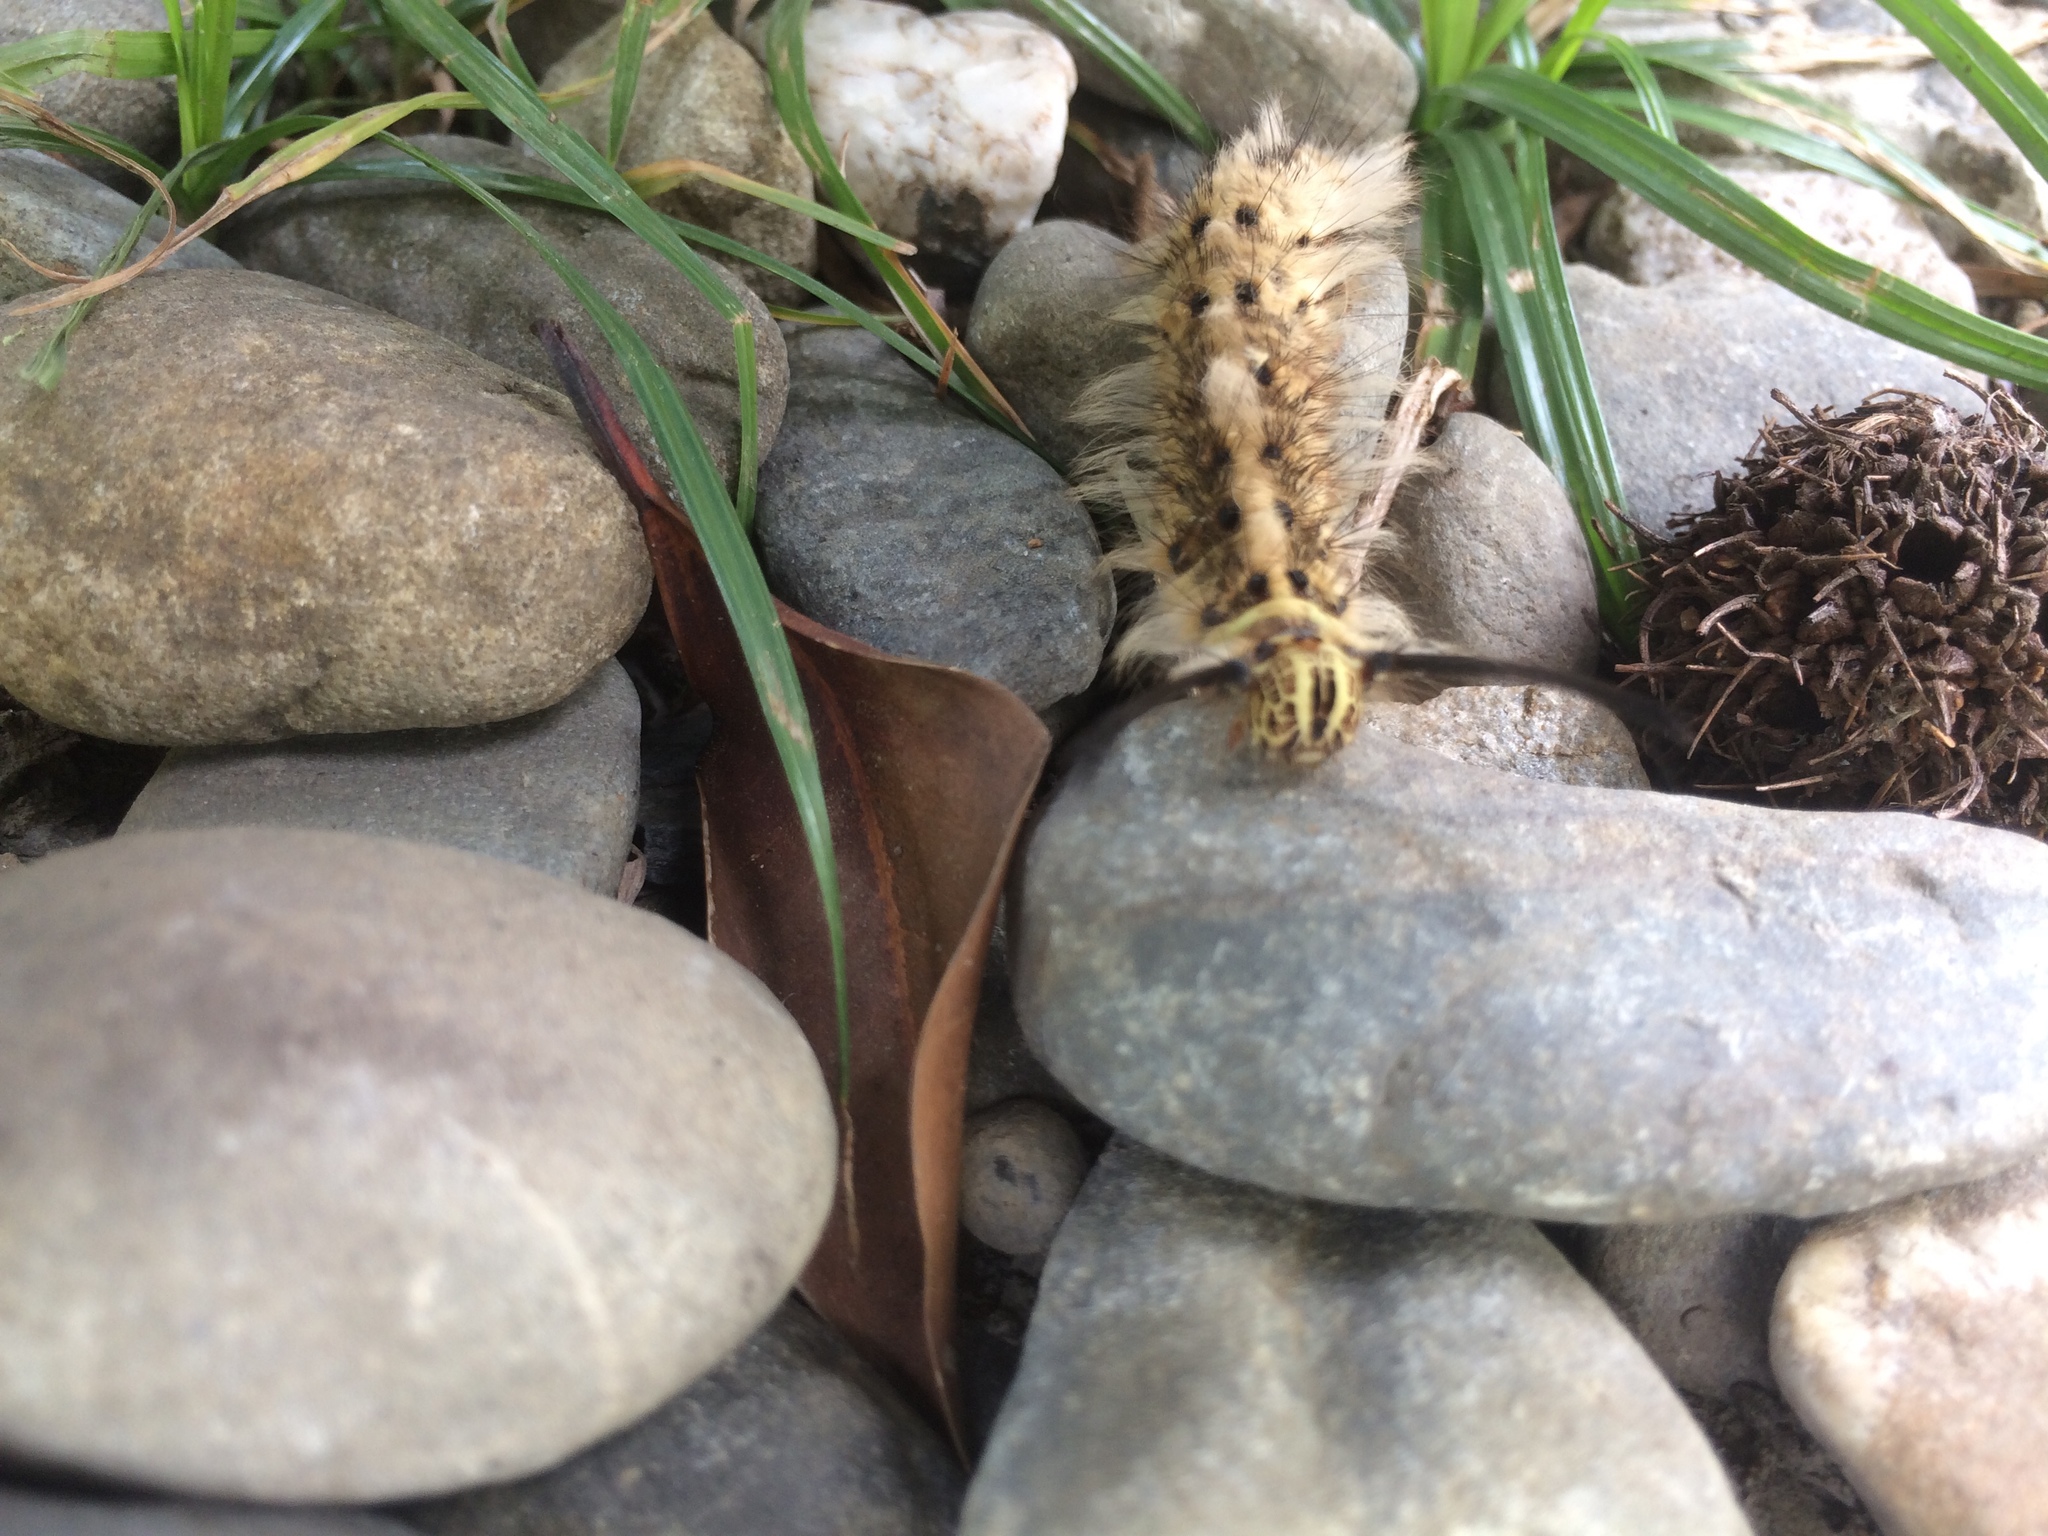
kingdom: Animalia
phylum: Arthropoda
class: Insecta
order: Lepidoptera
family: Lasiocampidae
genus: Trabala
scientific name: Trabala vishnou
